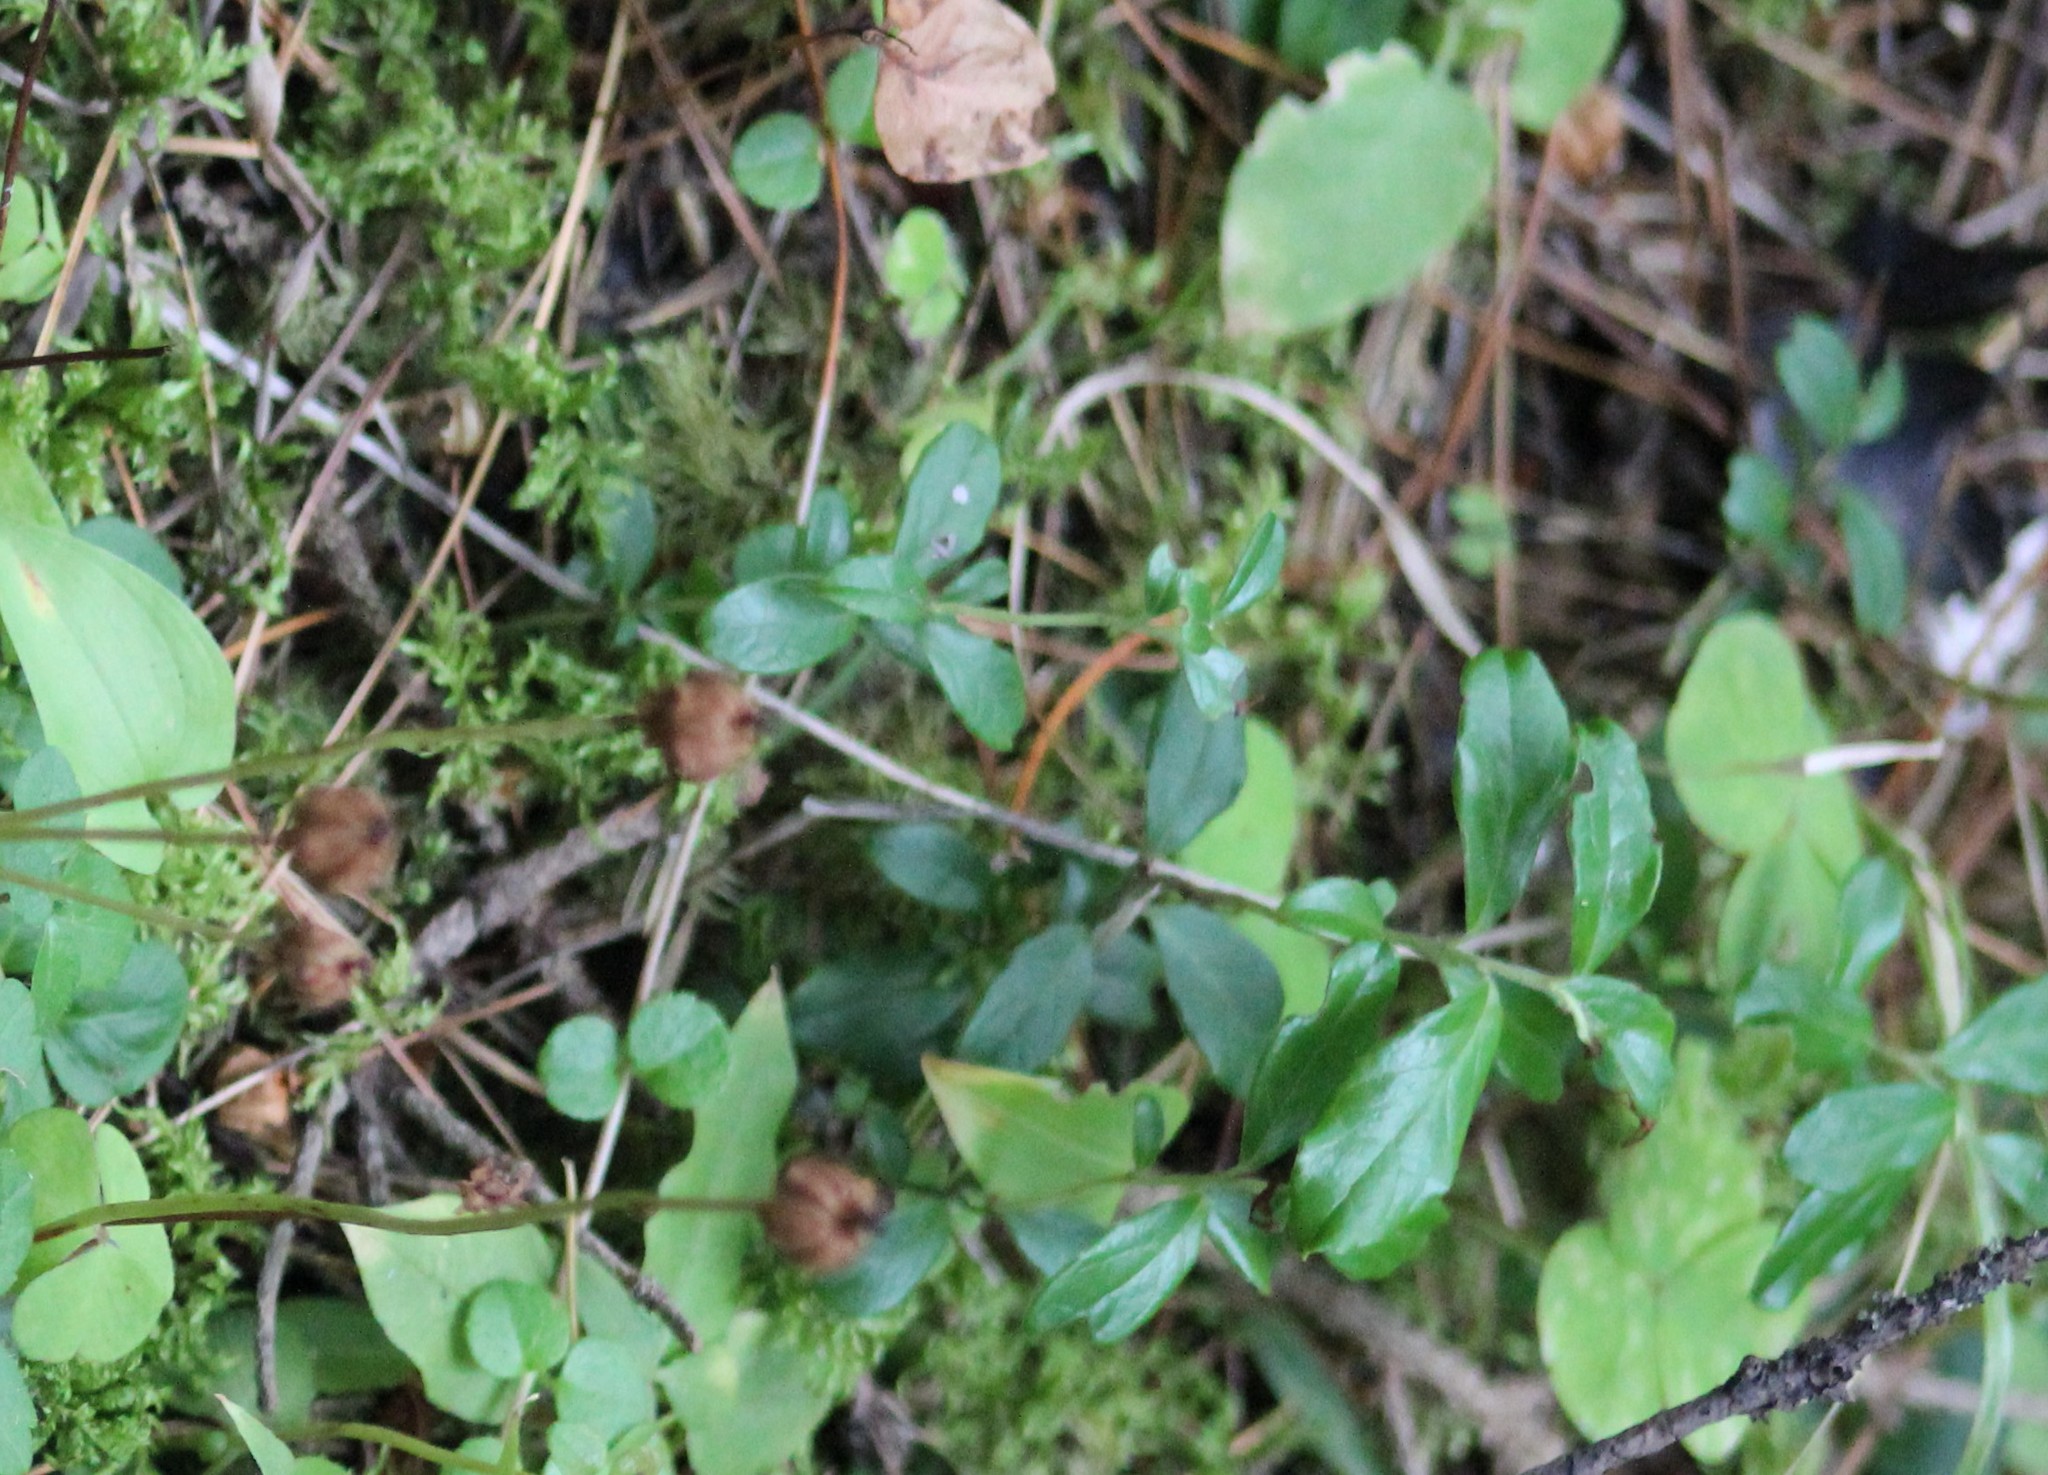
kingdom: Plantae
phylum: Tracheophyta
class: Magnoliopsida
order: Ericales
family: Ericaceae
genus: Vaccinium
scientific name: Vaccinium vitis-idaea
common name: Cowberry
